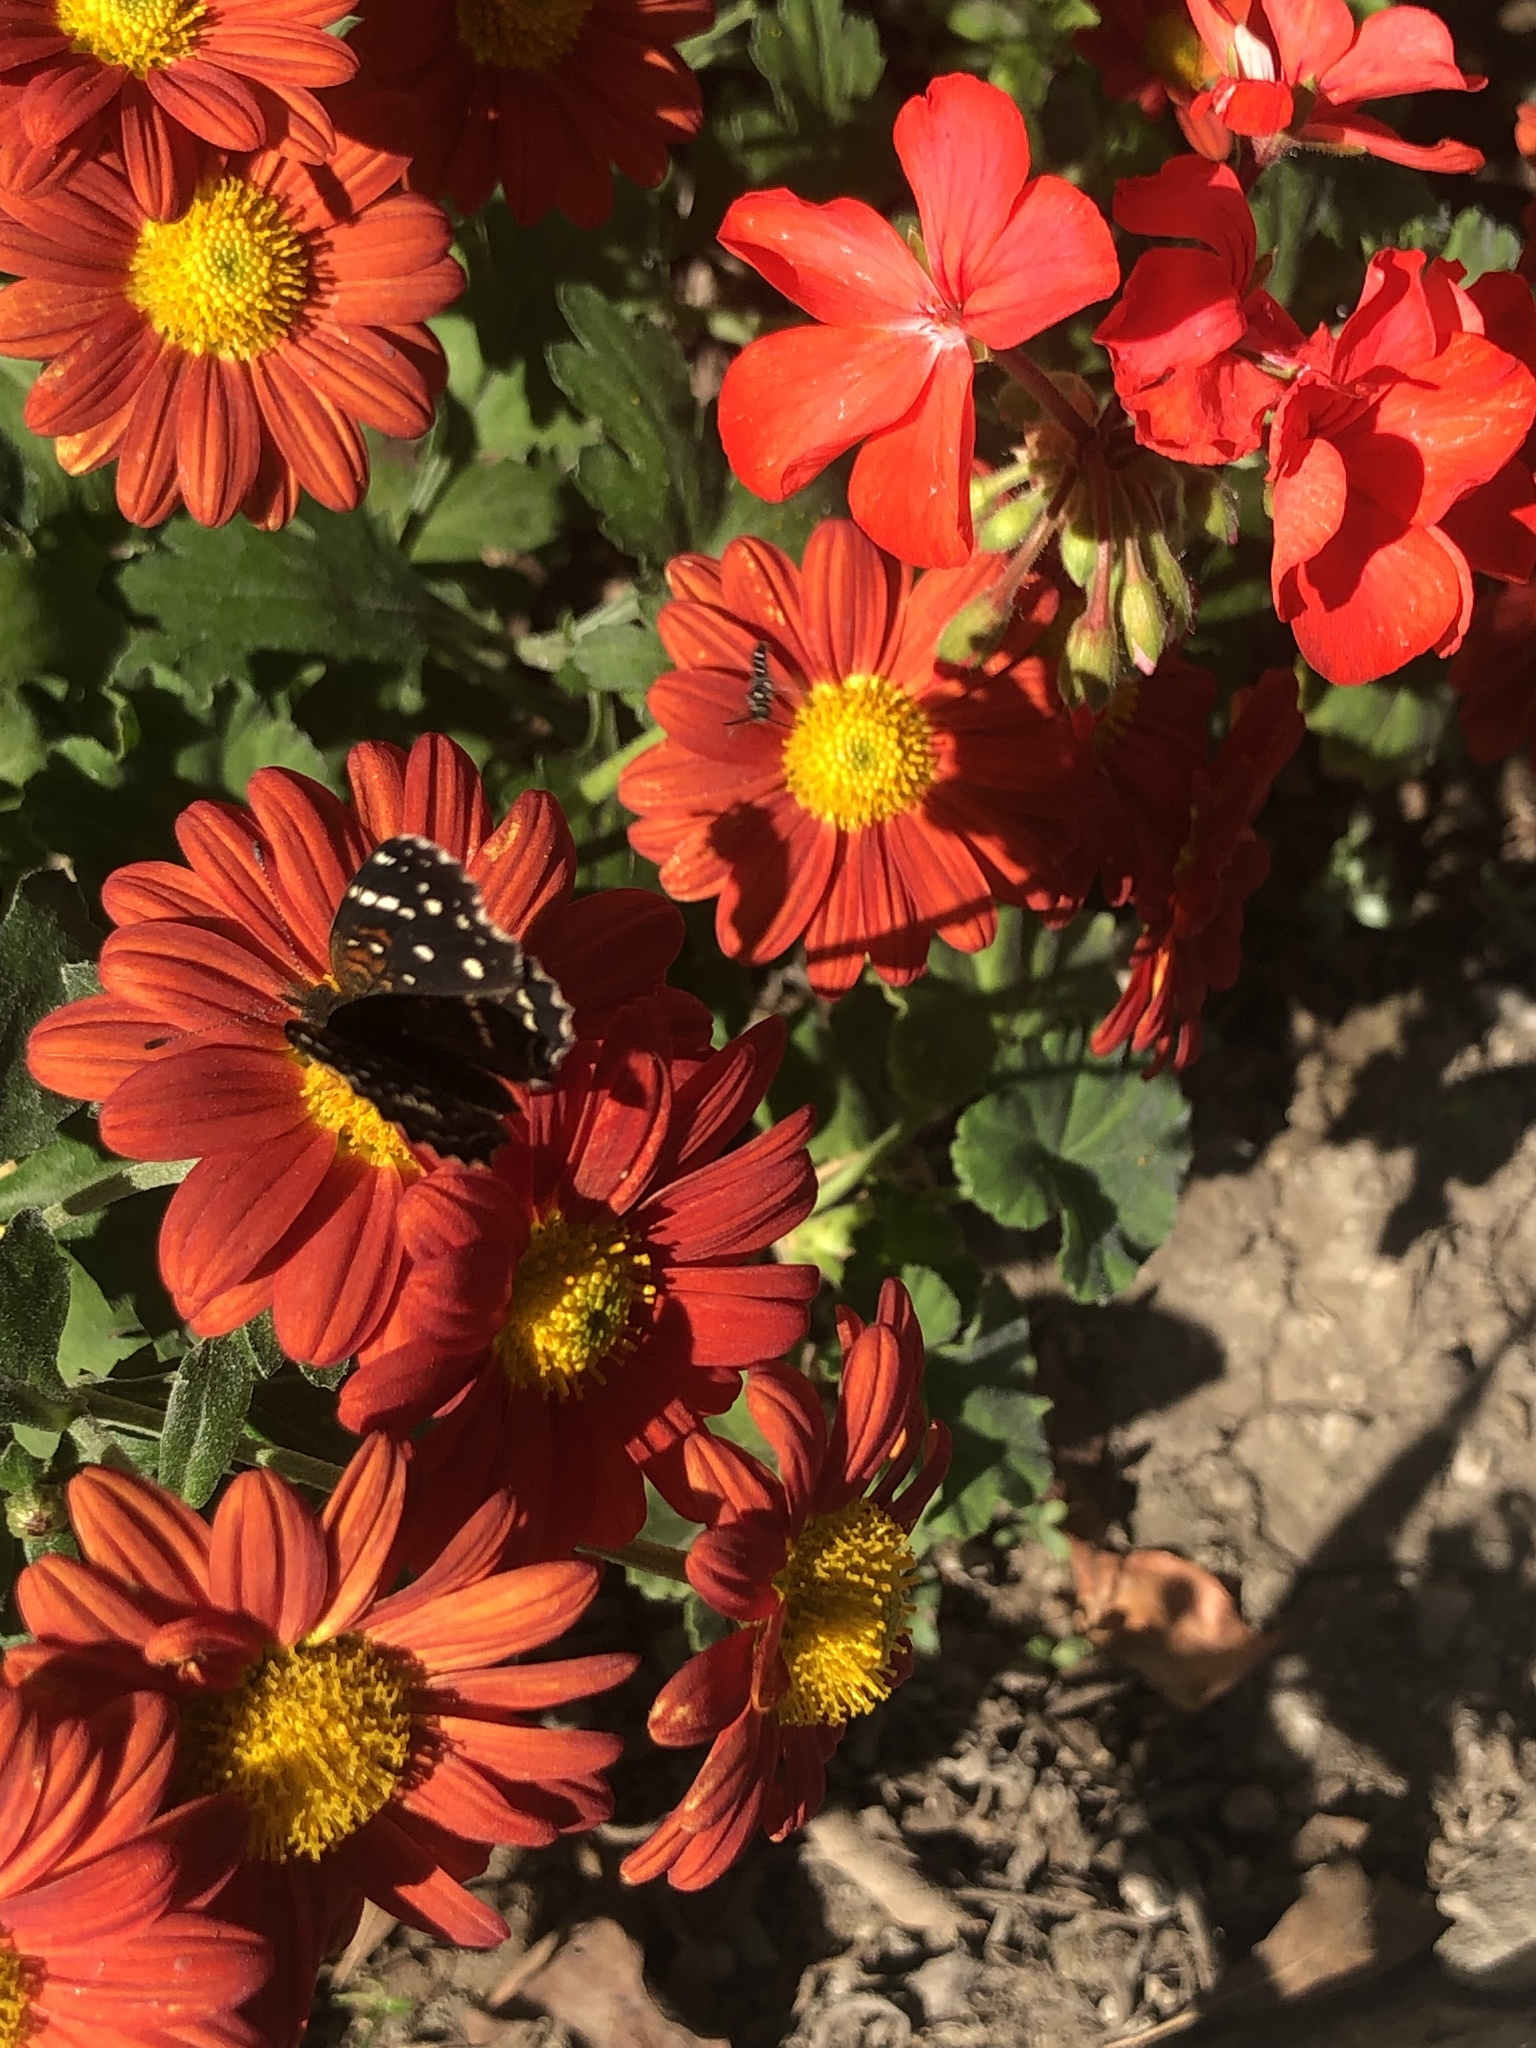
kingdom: Animalia
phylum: Arthropoda
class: Insecta
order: Lepidoptera
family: Nymphalidae
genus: Anthanassa
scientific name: Anthanassa texana
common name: Texan crescent
